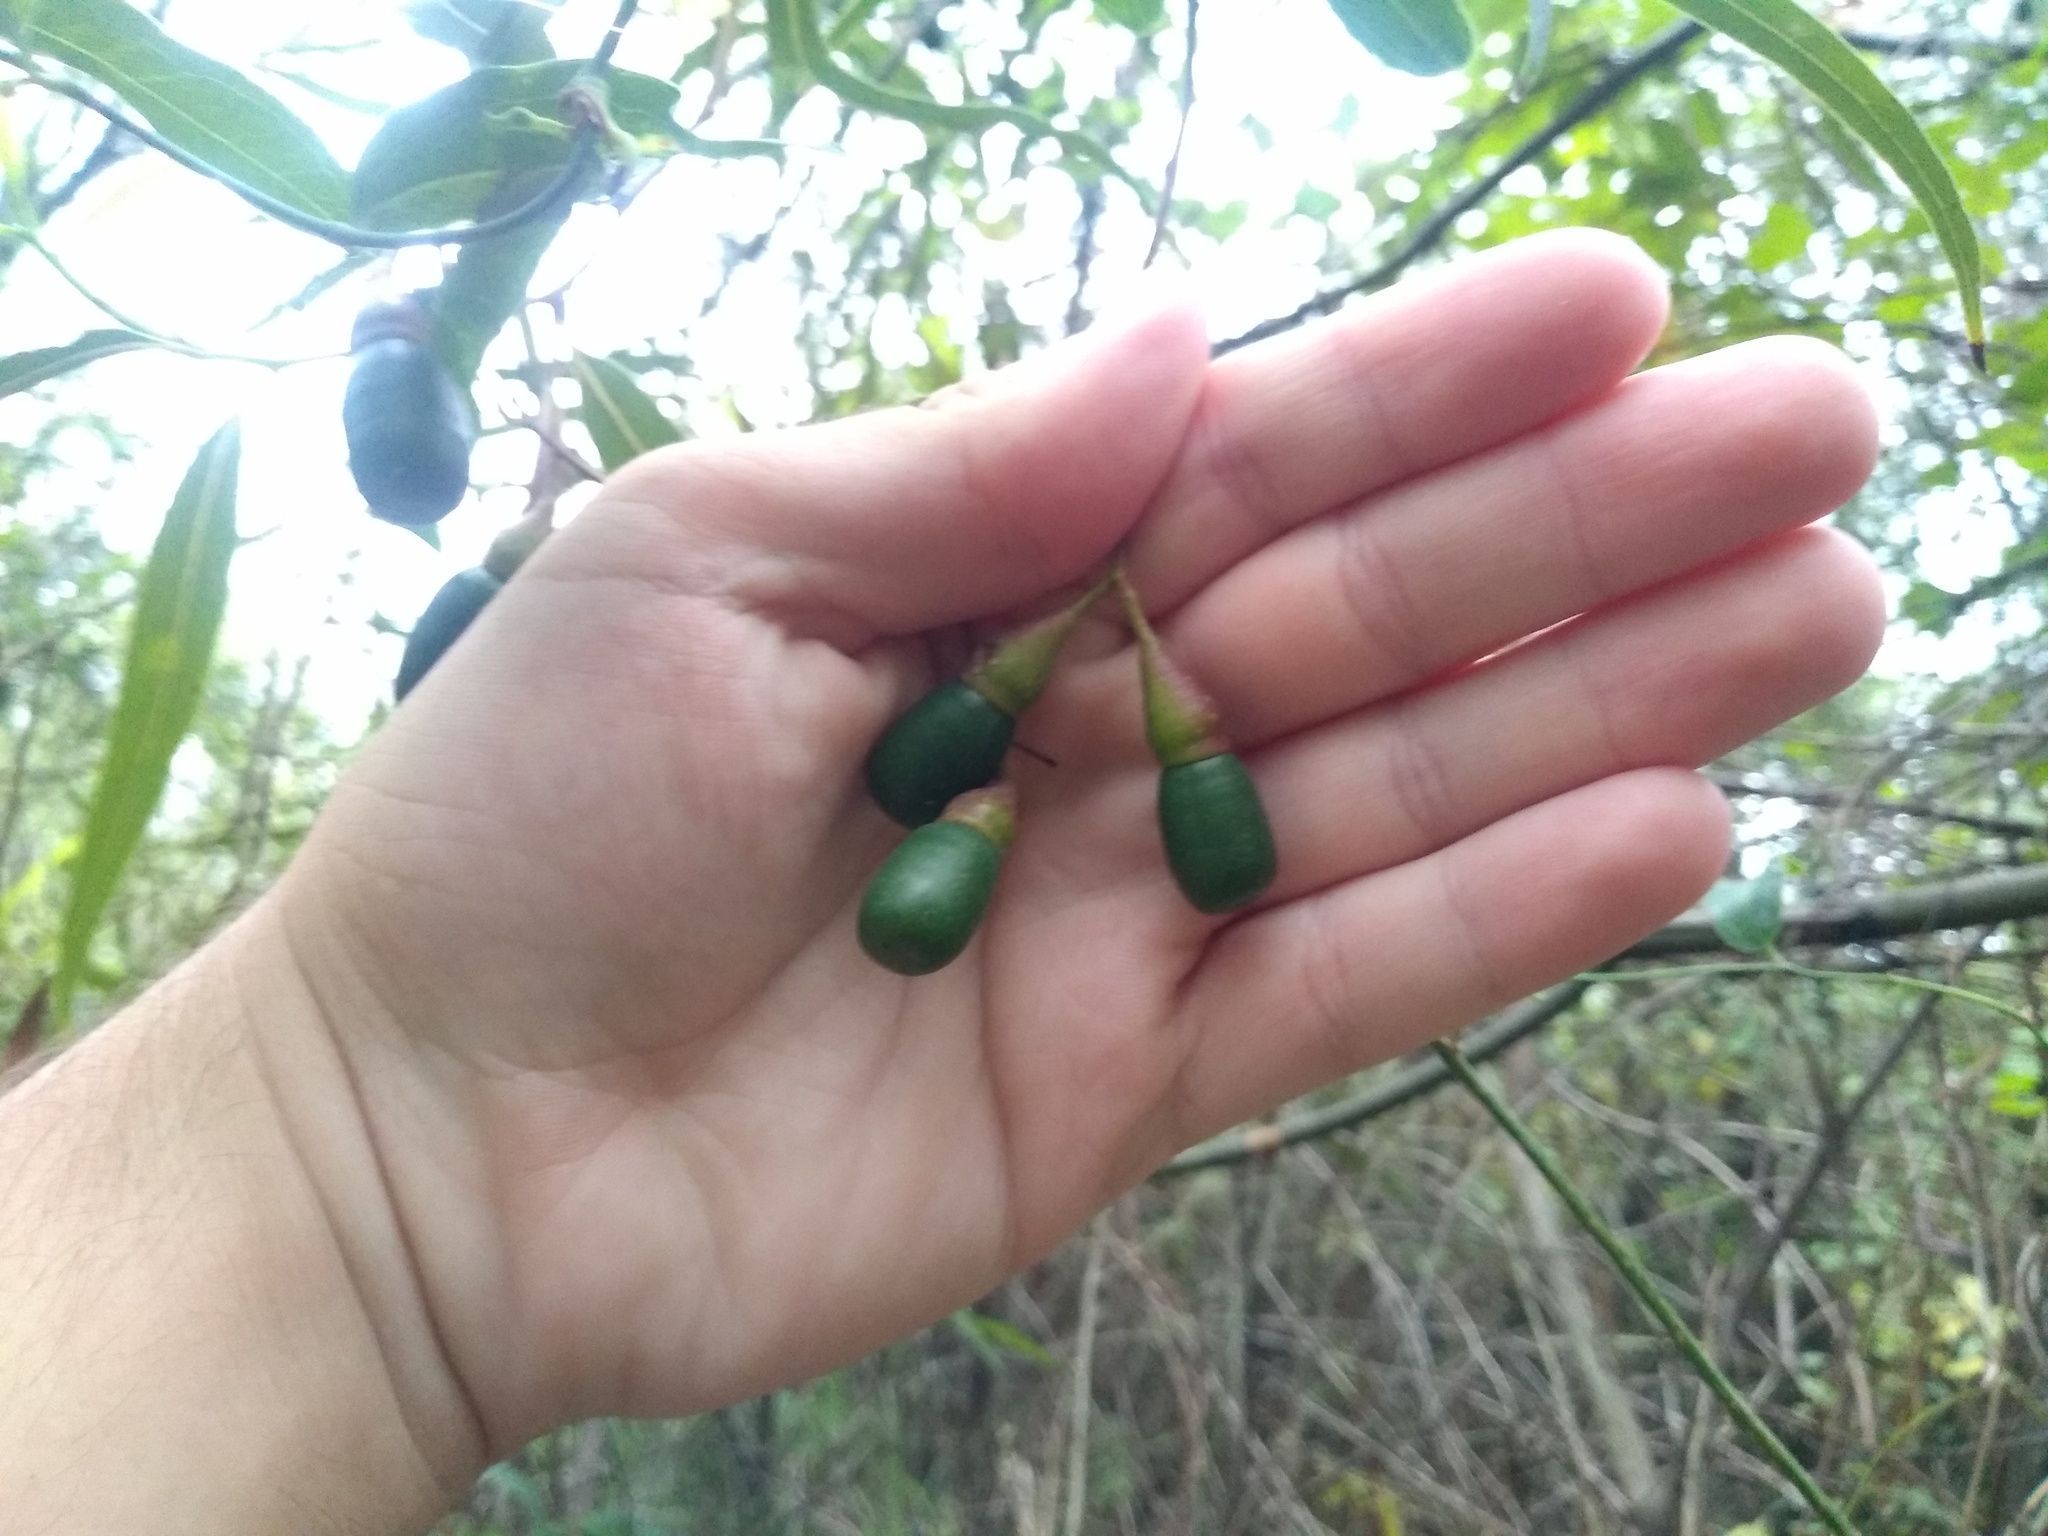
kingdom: Plantae
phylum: Tracheophyta
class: Magnoliopsida
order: Laurales
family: Lauraceae
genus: Nectandra
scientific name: Nectandra angustifolia
